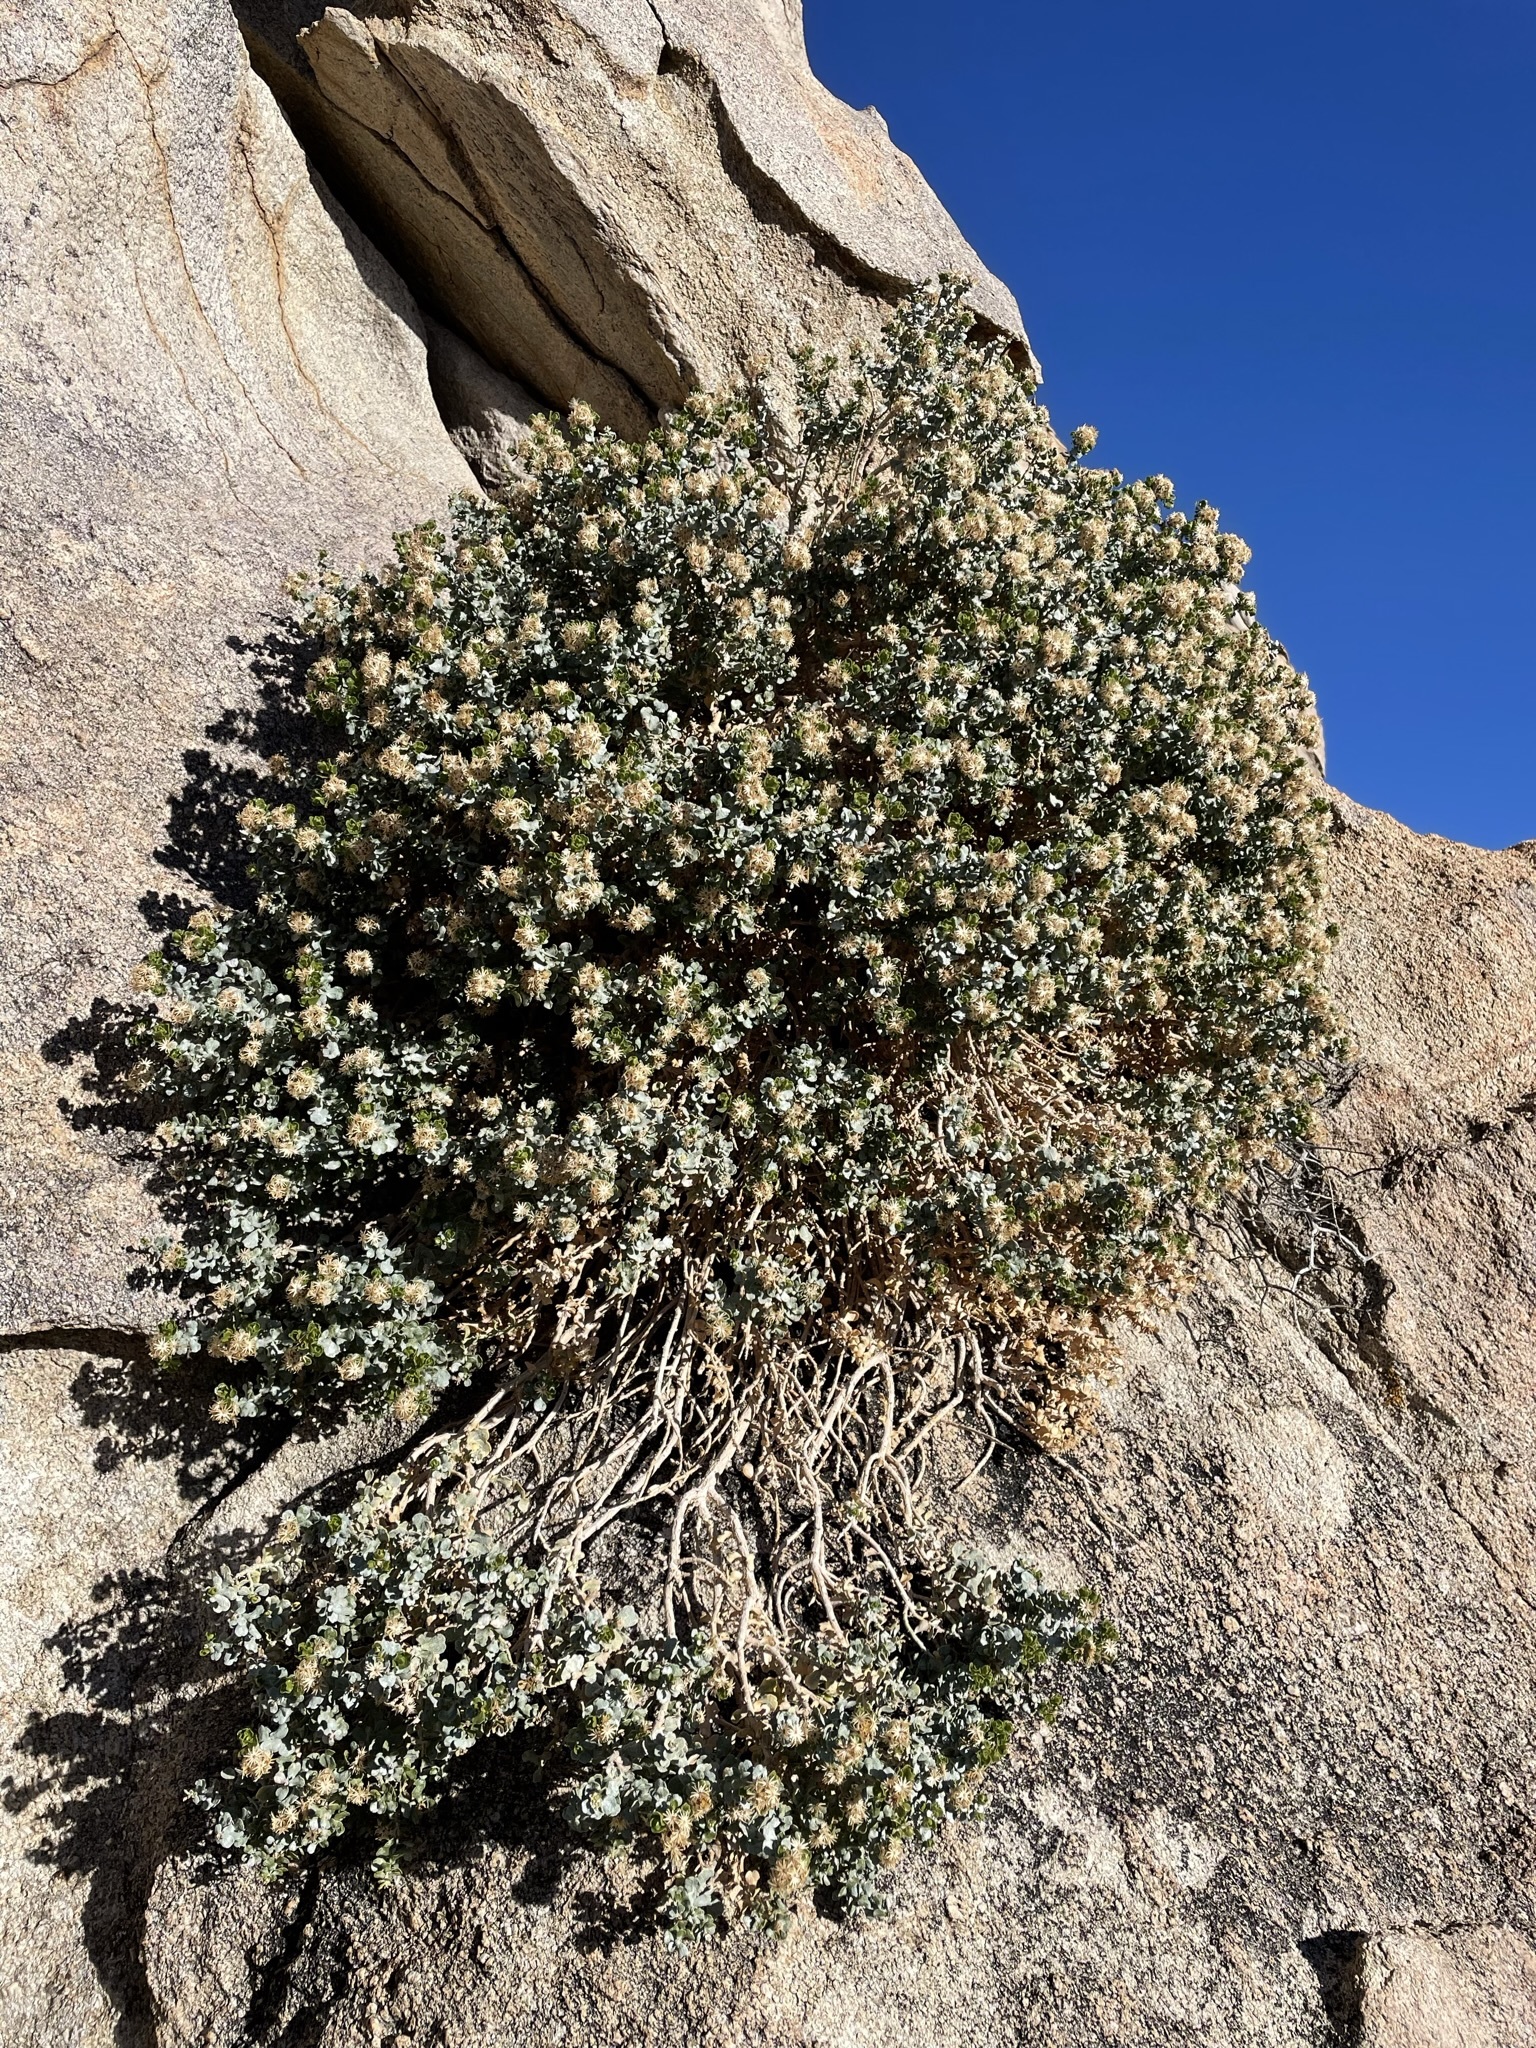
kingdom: Plantae
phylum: Tracheophyta
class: Magnoliopsida
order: Asterales
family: Asteraceae
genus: Ericameria
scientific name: Ericameria cuneata
